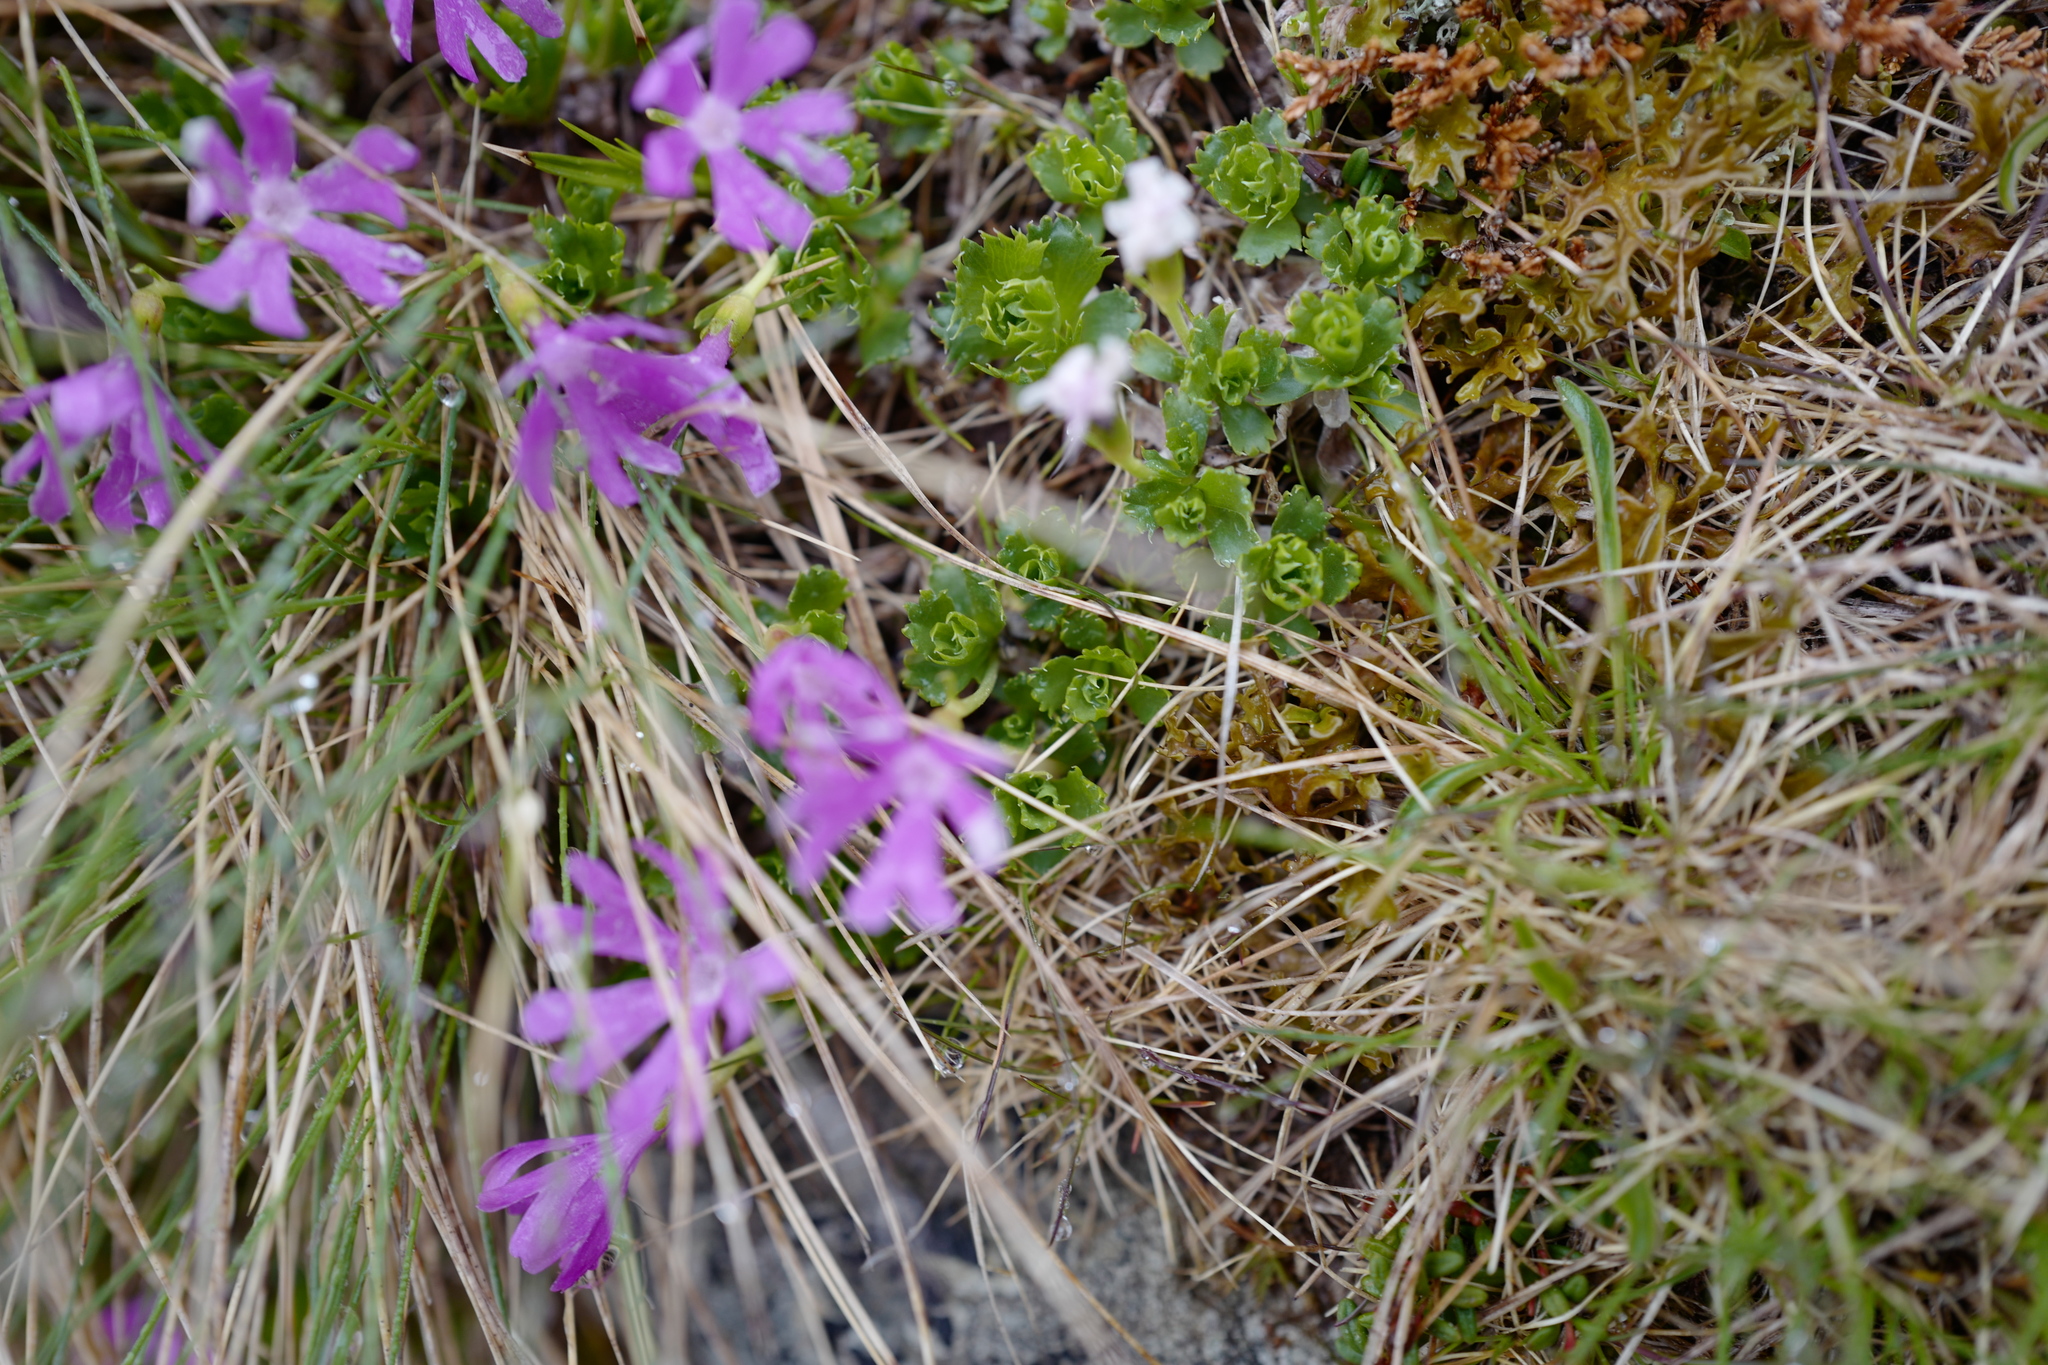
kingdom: Plantae
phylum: Tracheophyta
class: Magnoliopsida
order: Ericales
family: Primulaceae
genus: Primula
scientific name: Primula minima
